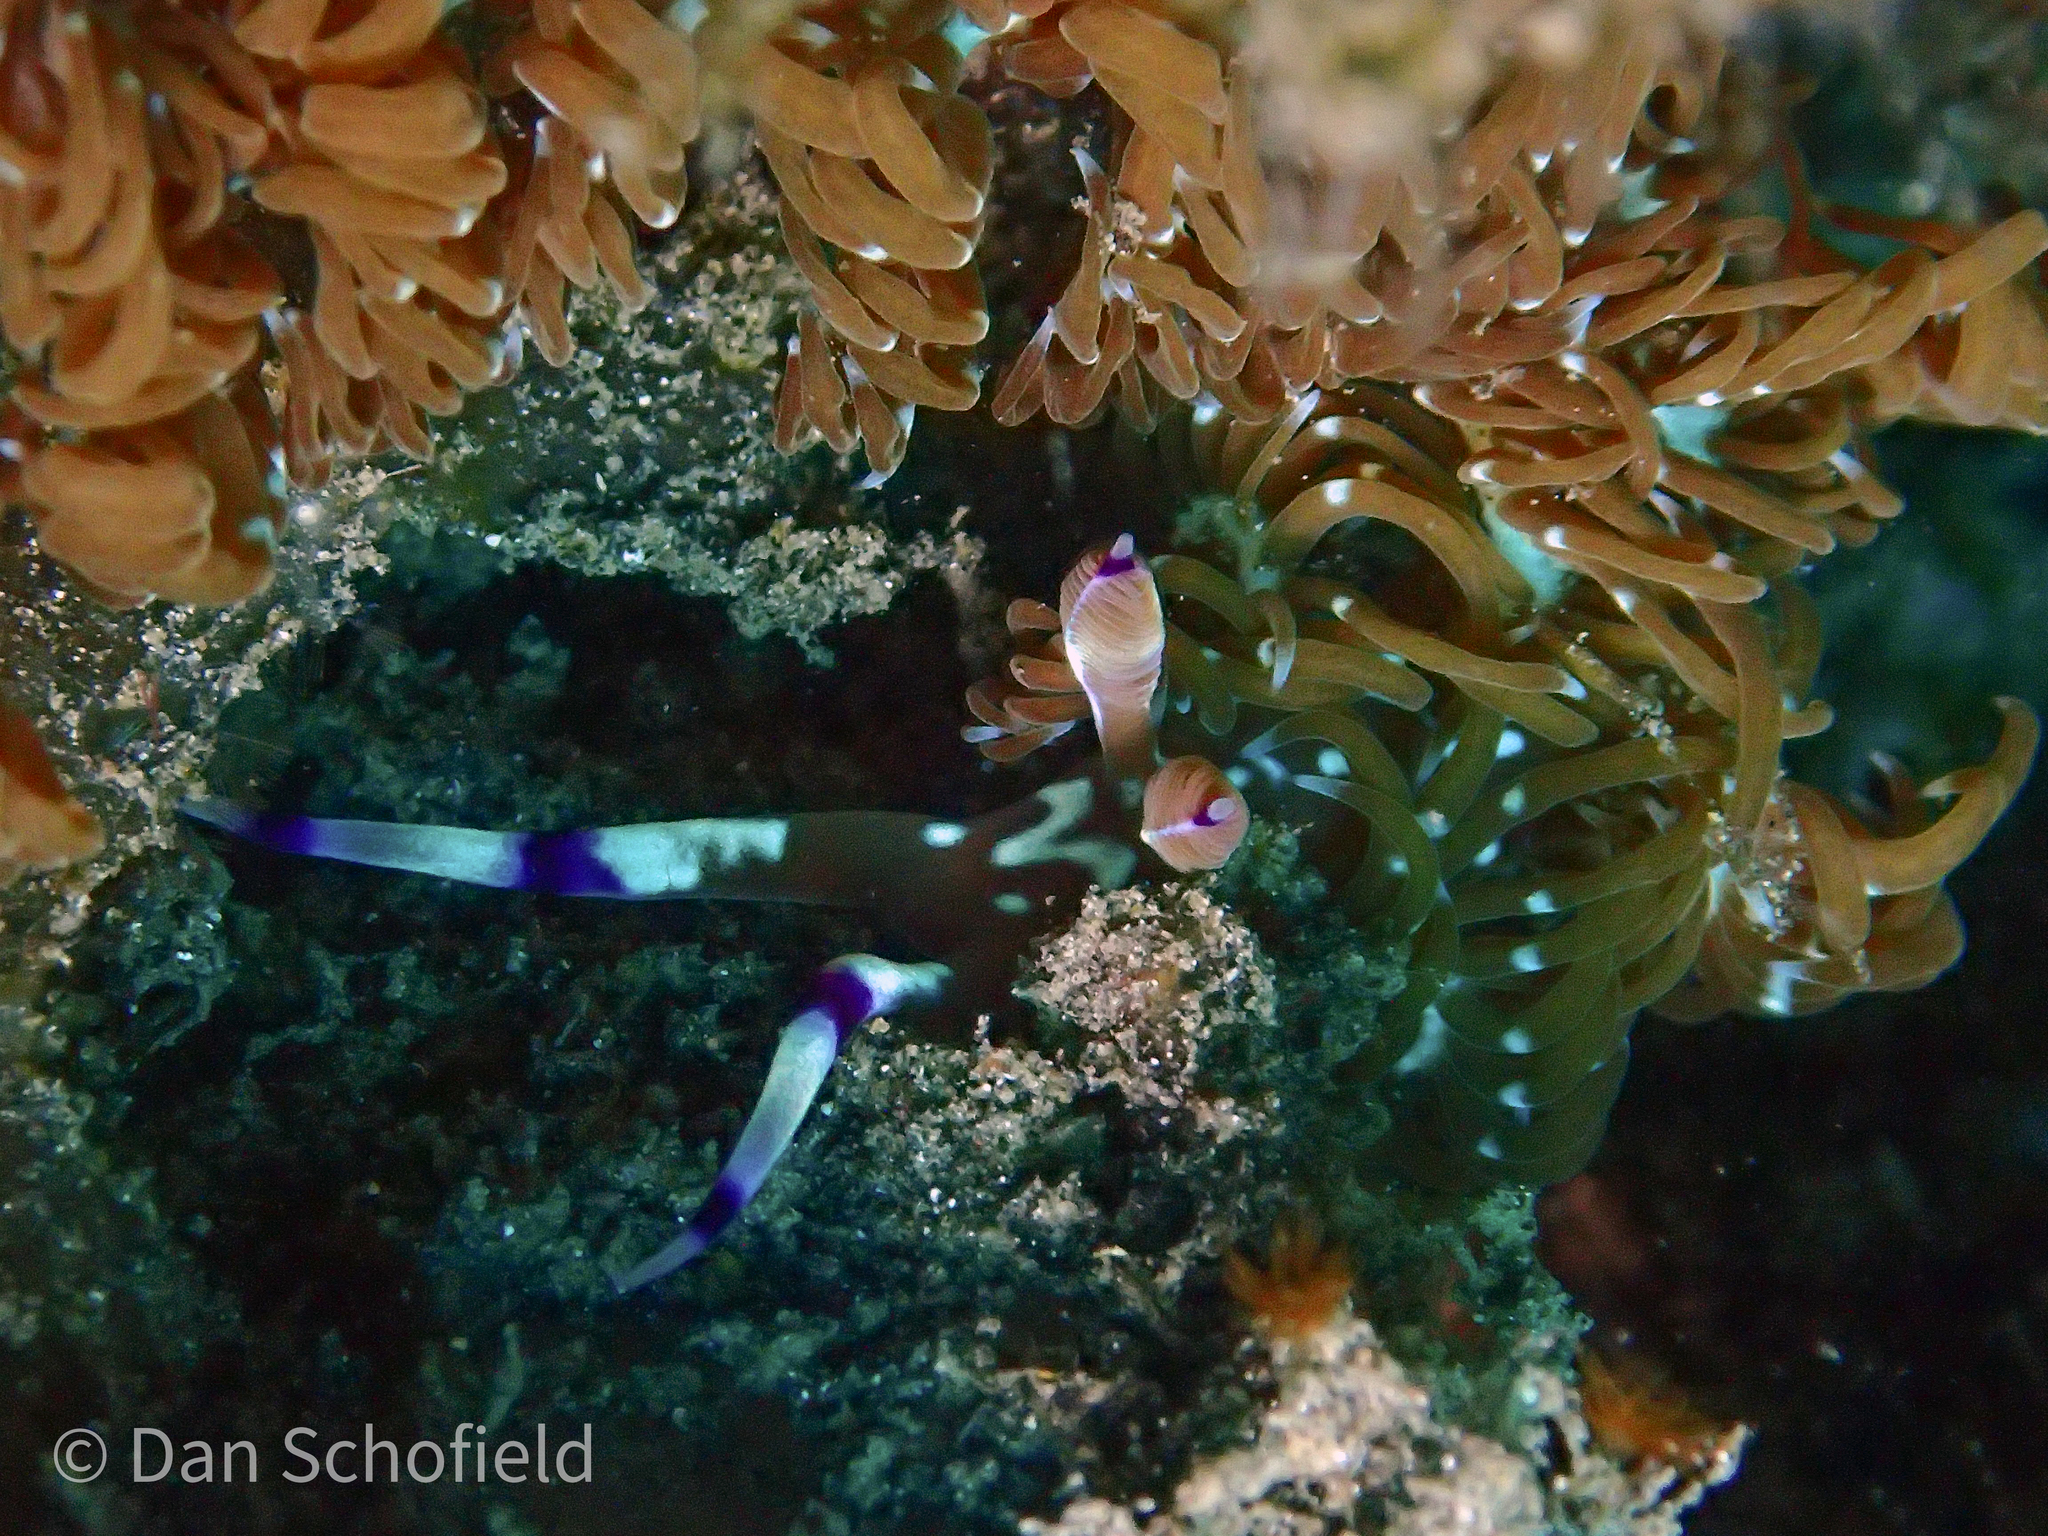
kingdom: Animalia
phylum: Mollusca
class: Gastropoda
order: Nudibranchia
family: Facelinidae
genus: Pteraeolidia
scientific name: Pteraeolidia semperi
